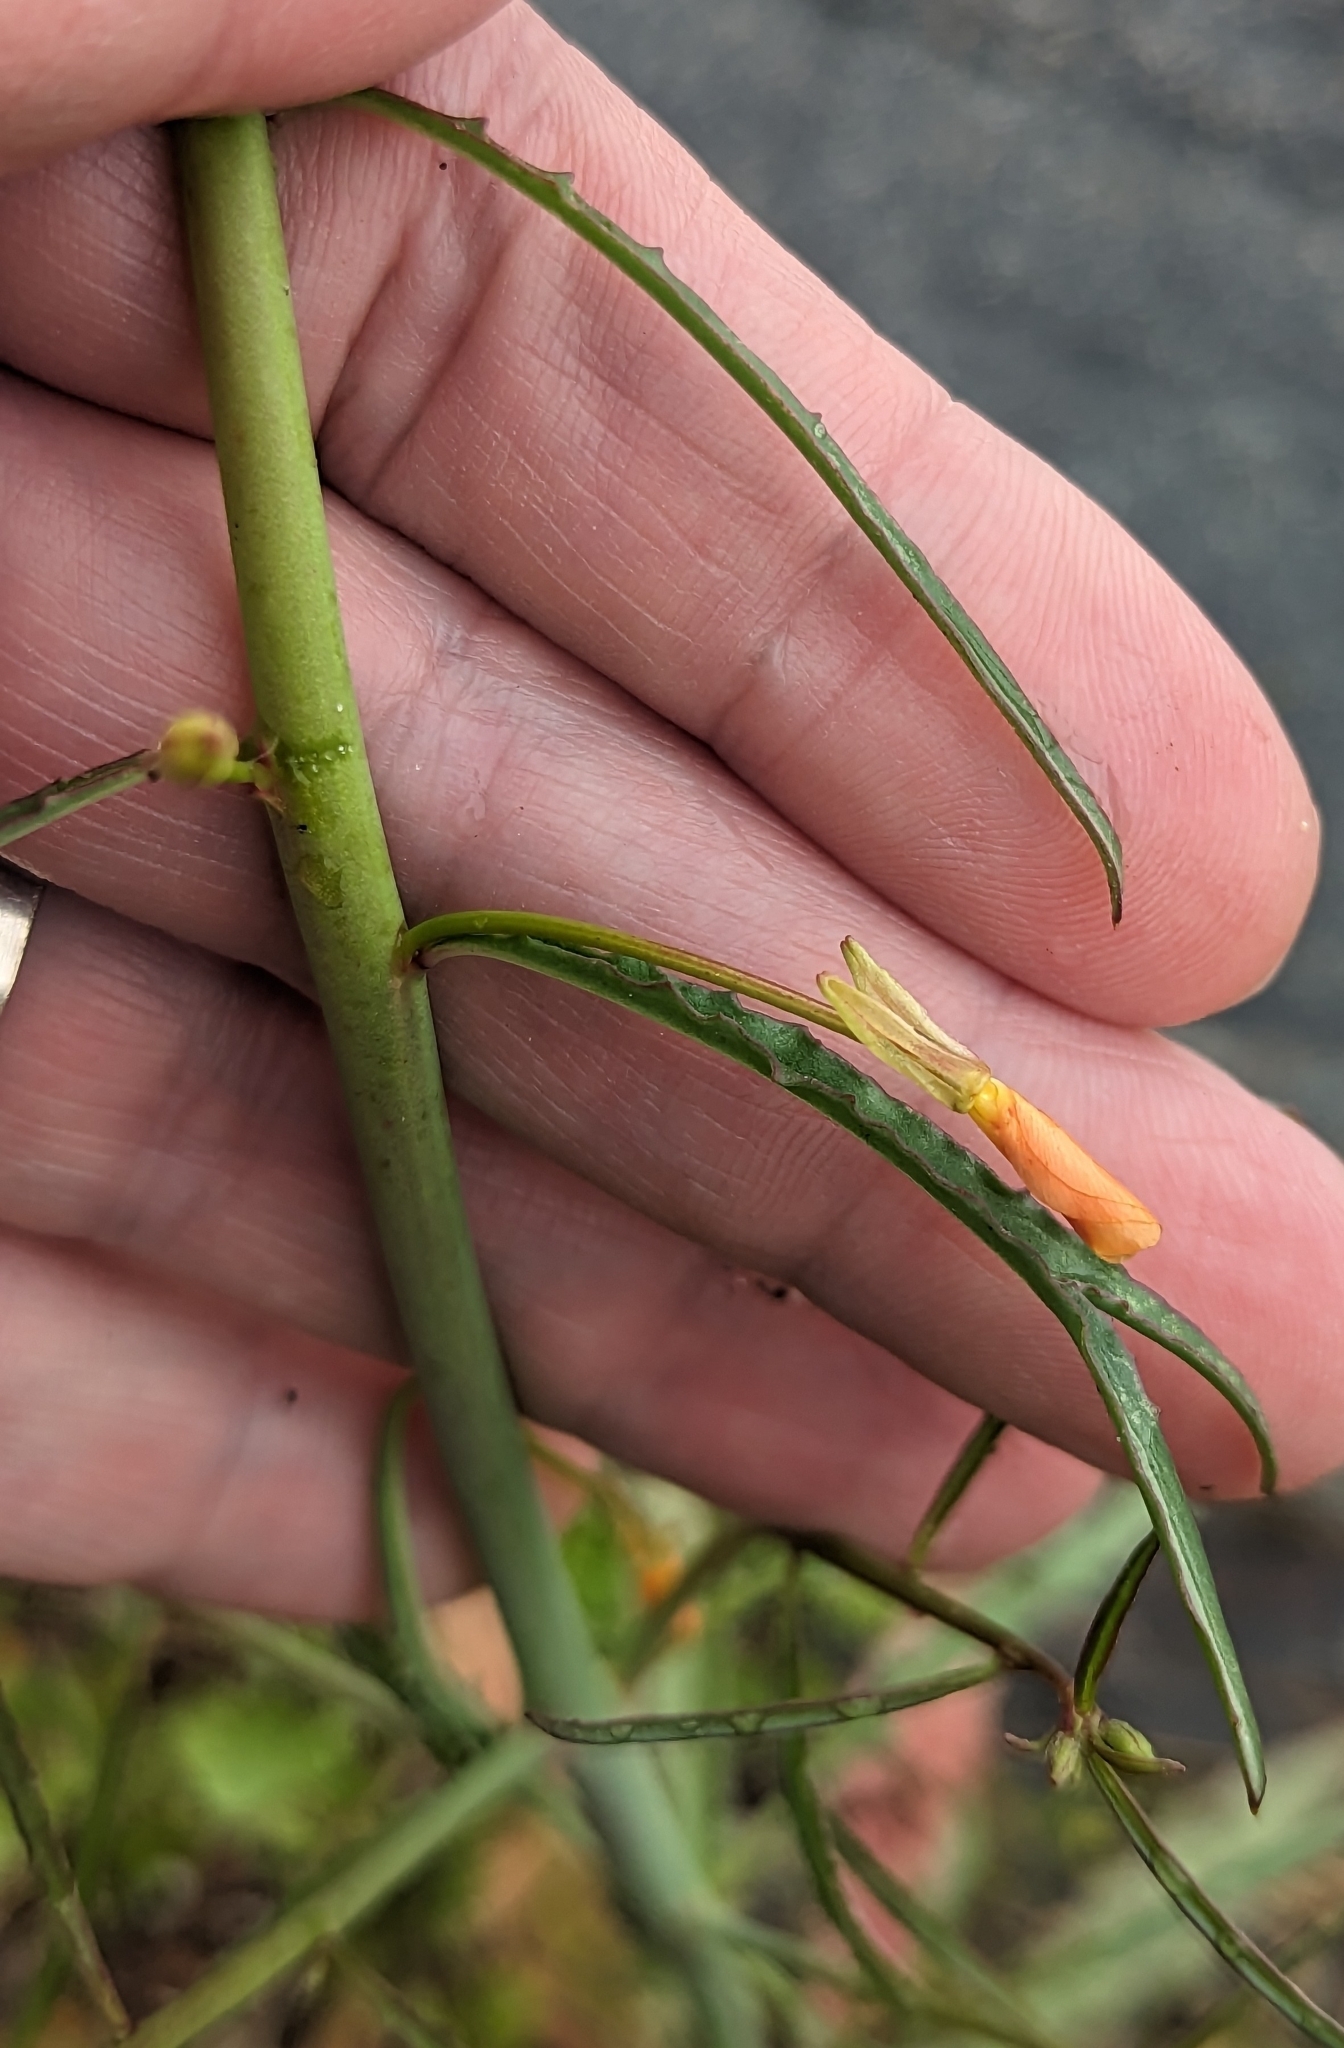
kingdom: Plantae
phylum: Tracheophyta
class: Magnoliopsida
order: Myrtales
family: Onagraceae
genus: Eulobus
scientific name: Eulobus californicus
